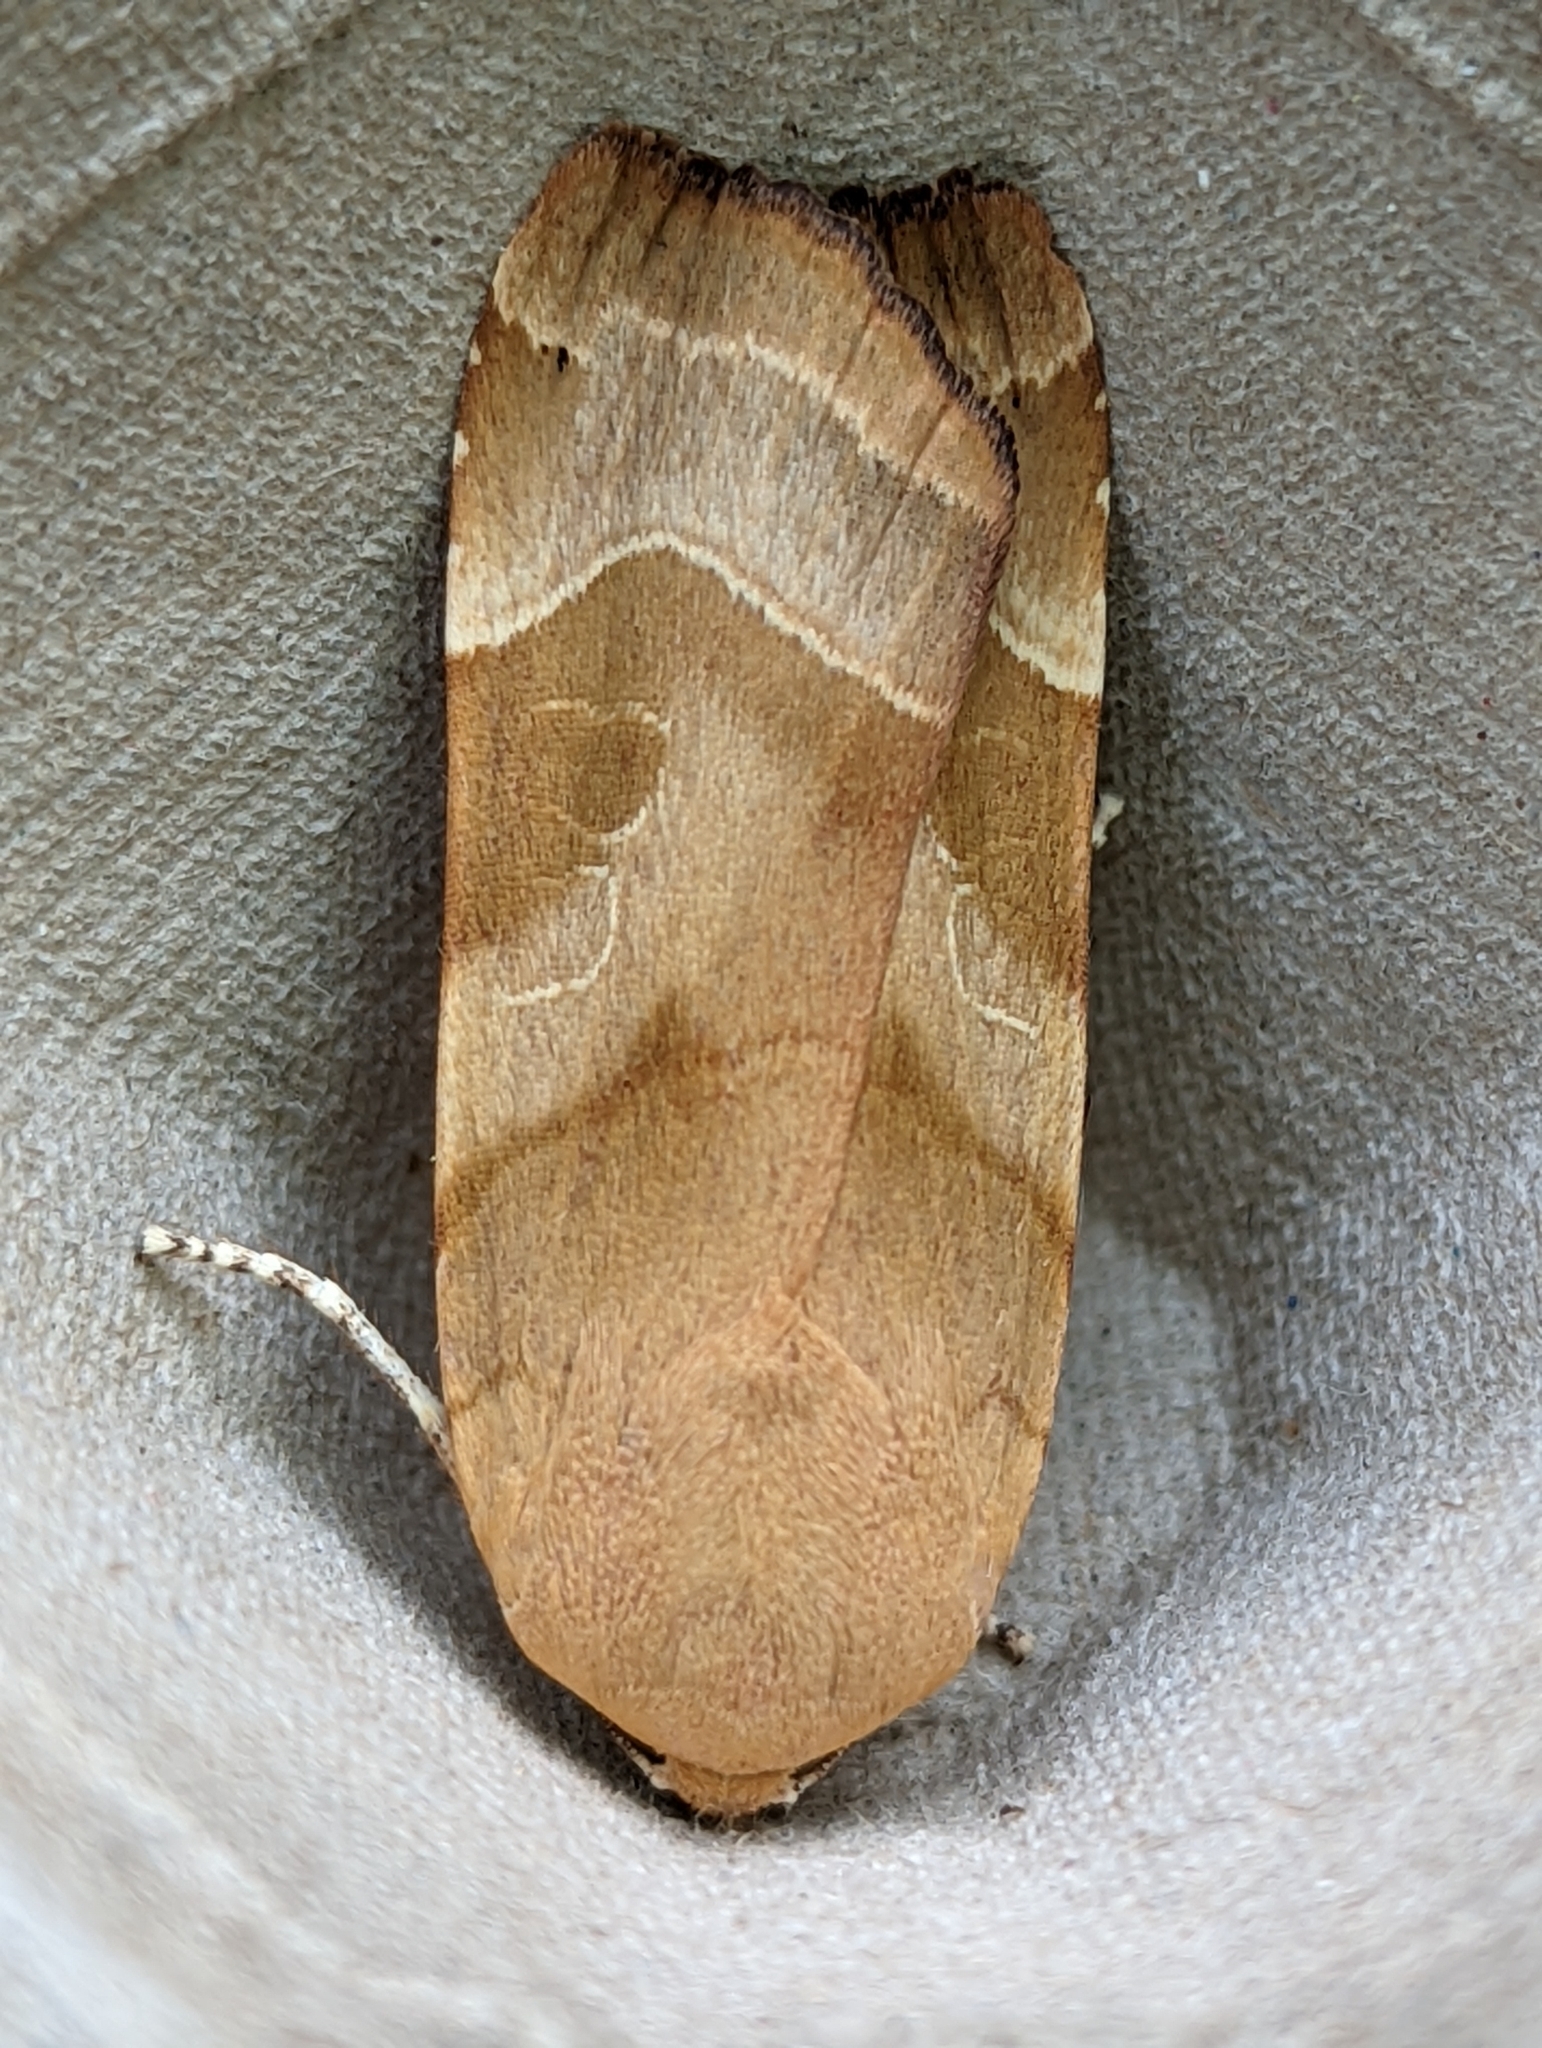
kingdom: Animalia
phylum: Arthropoda
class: Insecta
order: Lepidoptera
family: Noctuidae
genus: Noctua
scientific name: Noctua fimbriata
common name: Broad-bordered yellow underwing
